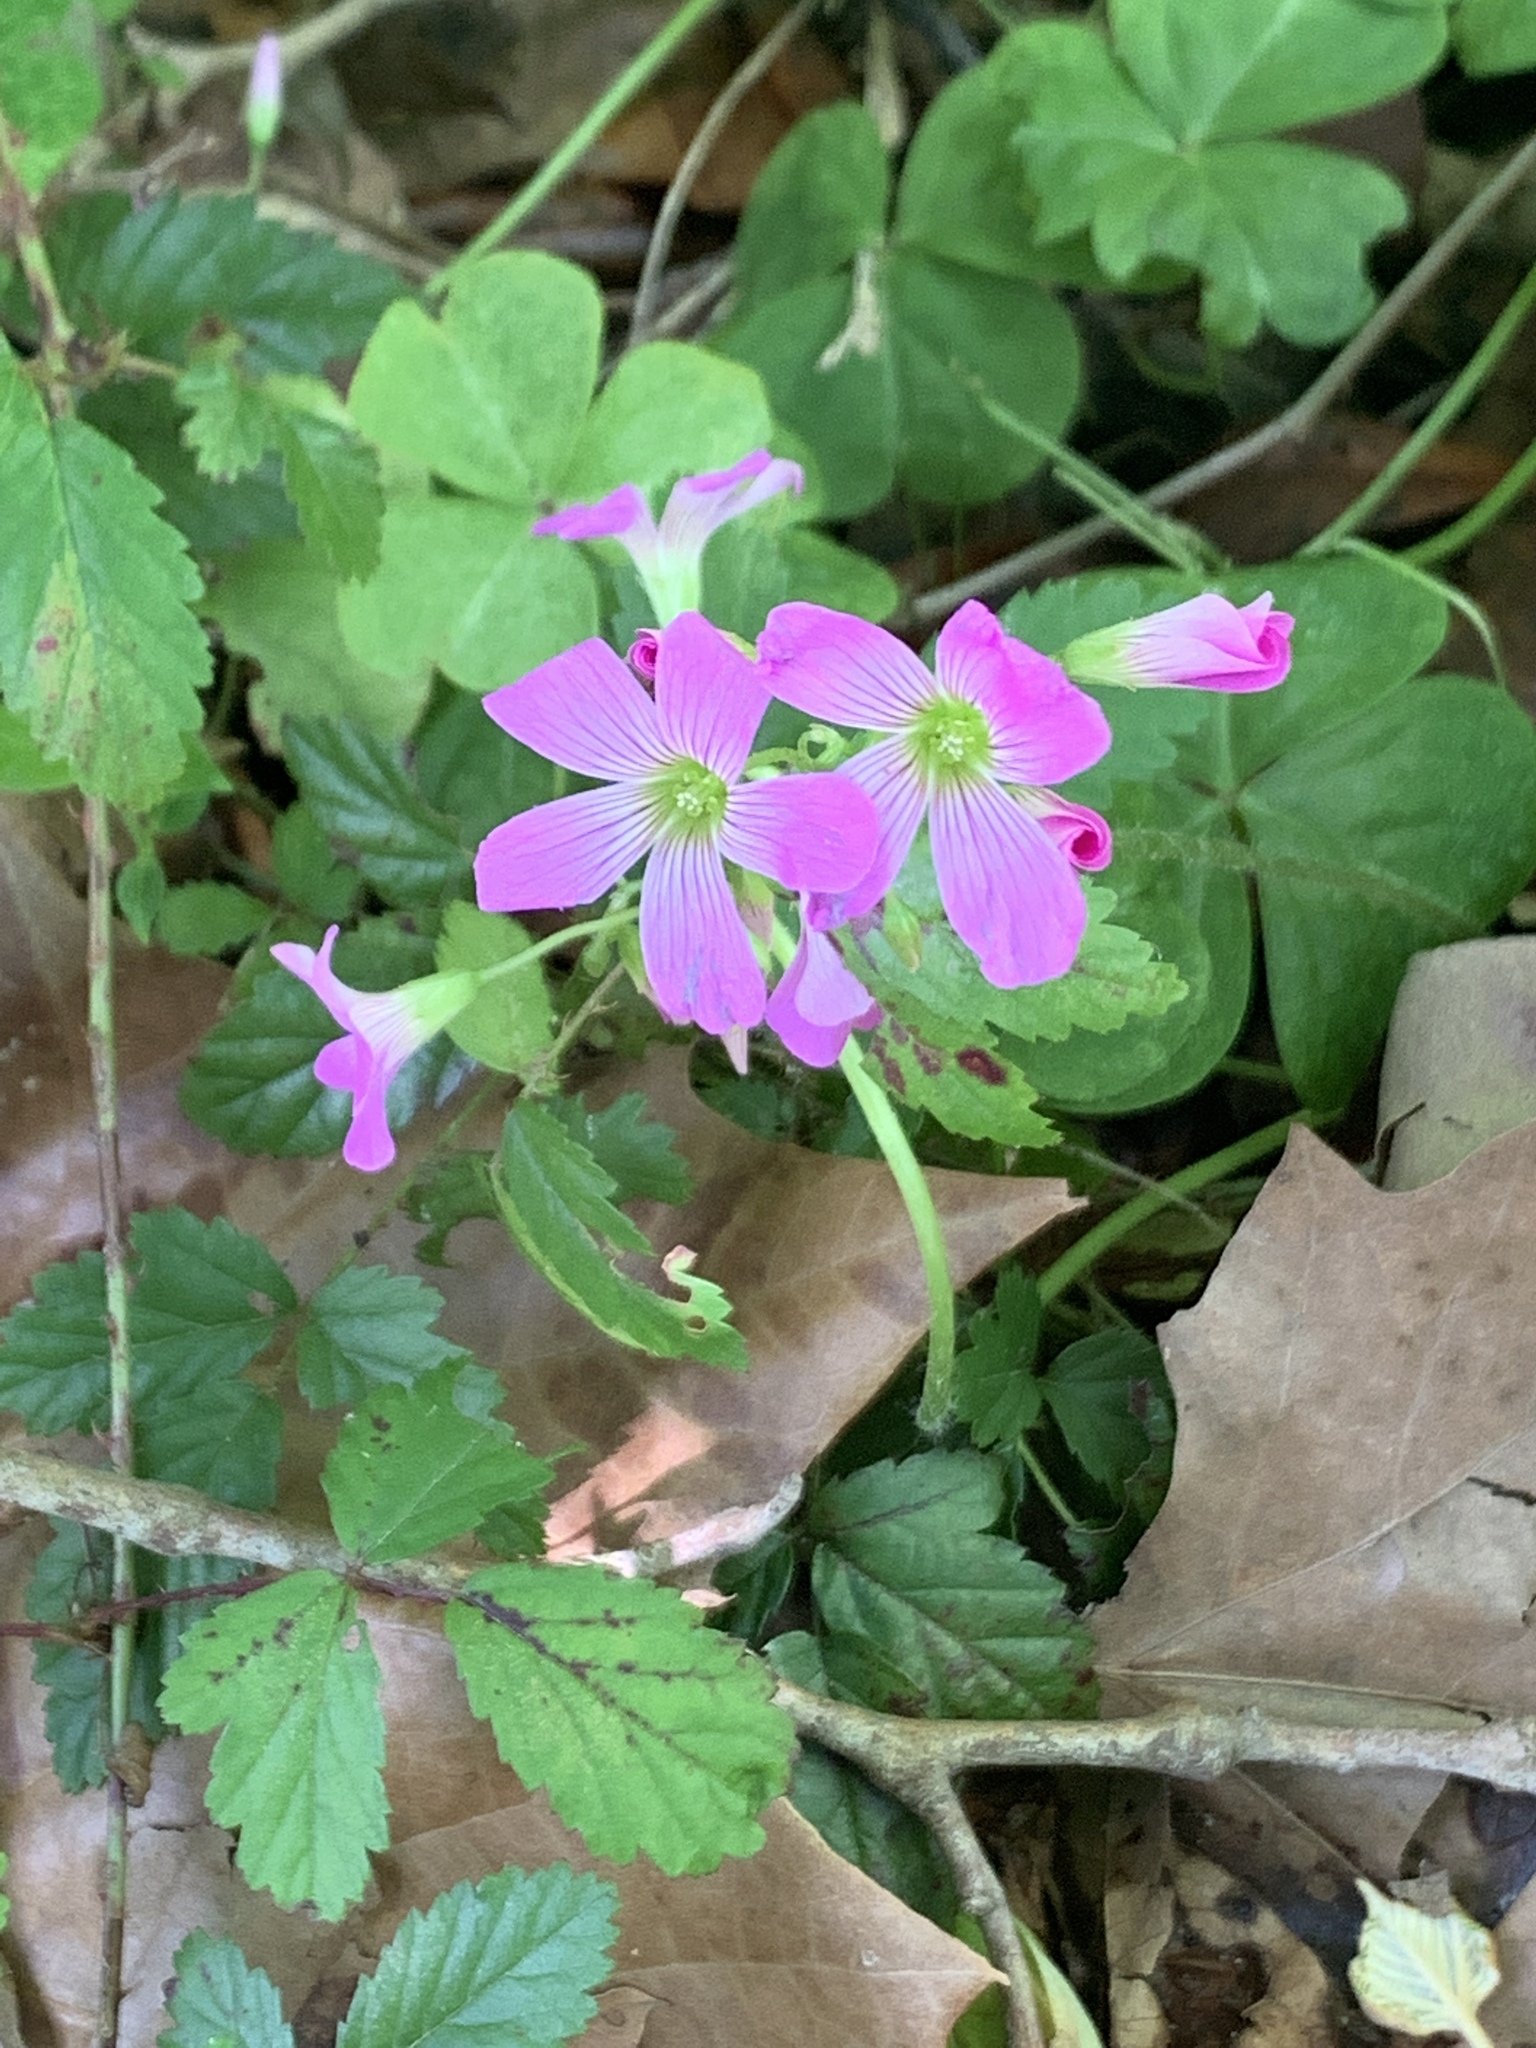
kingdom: Plantae
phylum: Tracheophyta
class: Magnoliopsida
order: Oxalidales
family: Oxalidaceae
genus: Oxalis
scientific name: Oxalis debilis
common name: Large-flowered pink-sorrel
